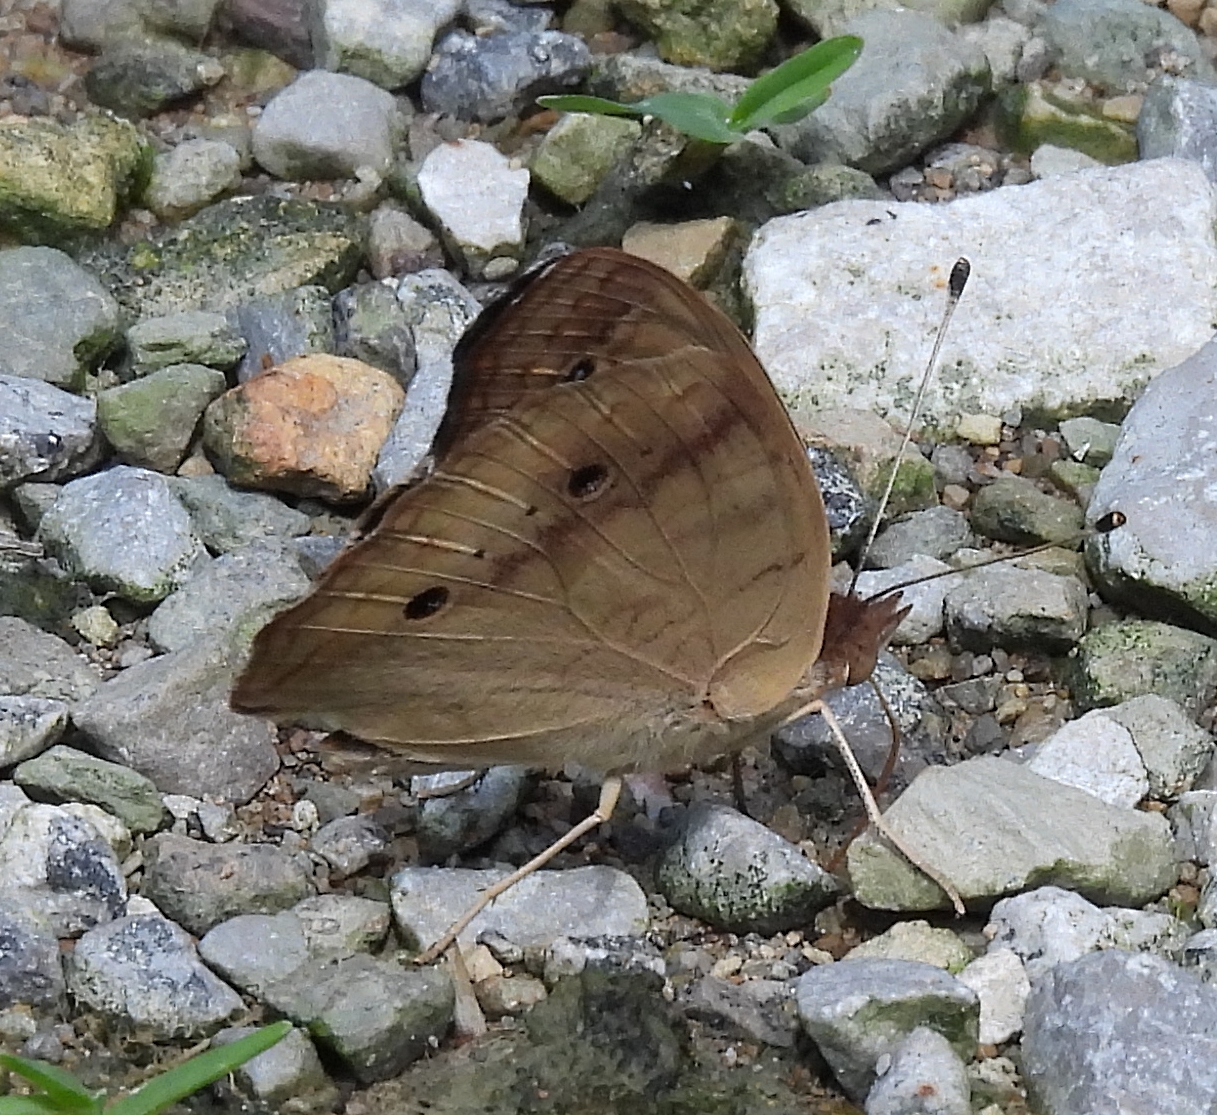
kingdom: Animalia
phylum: Arthropoda
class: Insecta
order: Lepidoptera
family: Nymphalidae
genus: Junonia
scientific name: Junonia coenia
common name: Common buckeye
